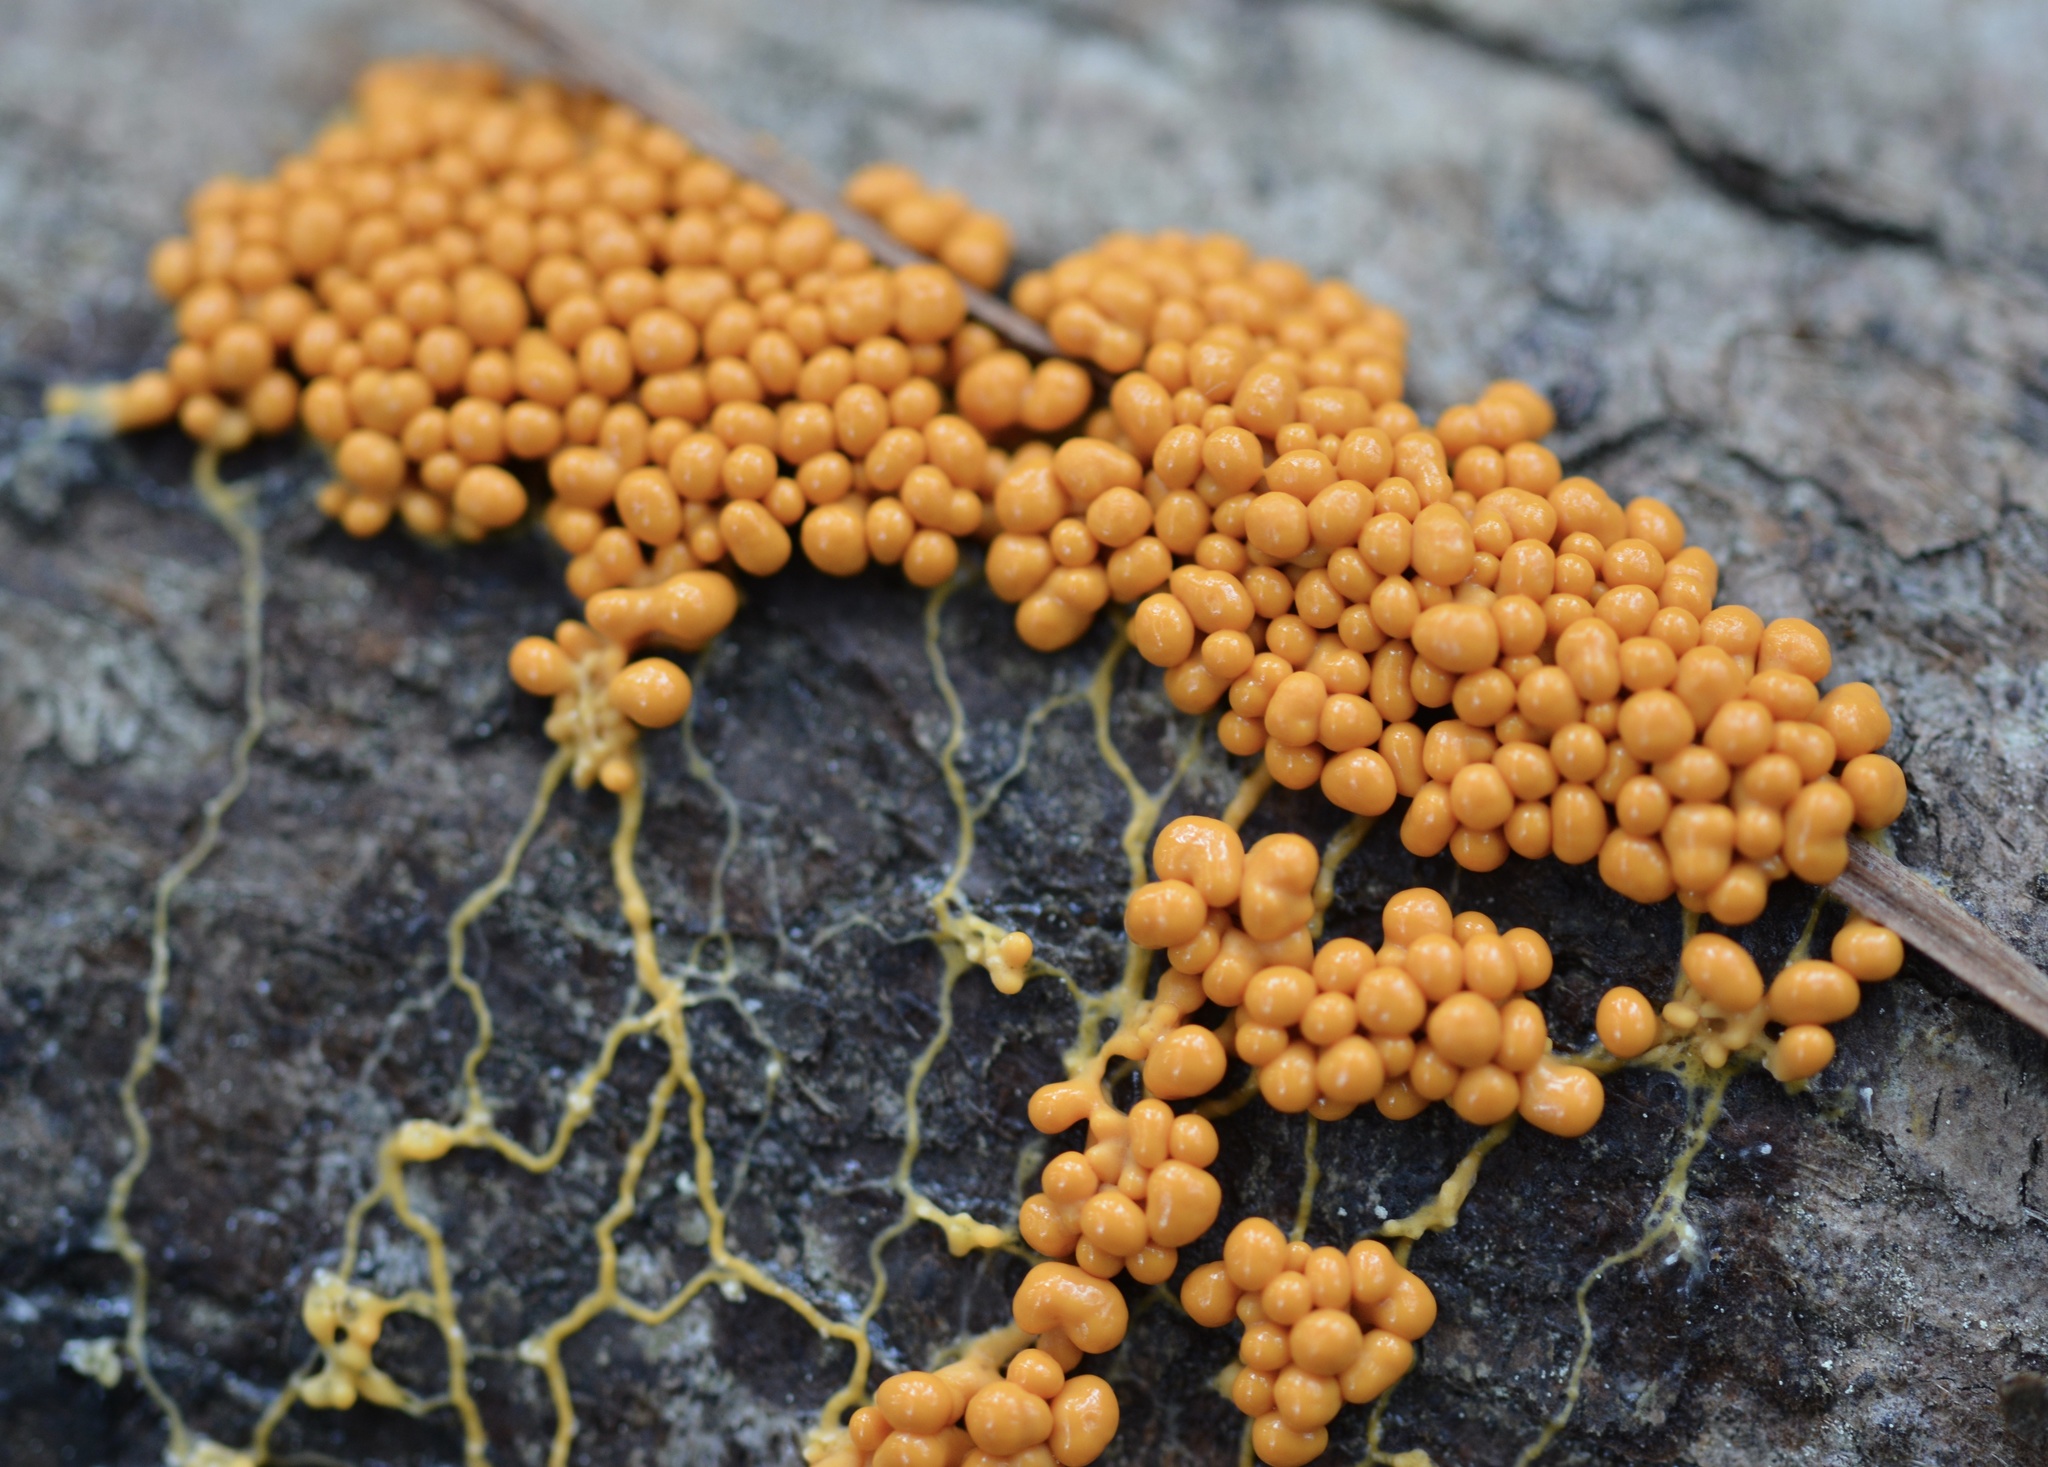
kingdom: Protozoa
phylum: Mycetozoa
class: Myxomycetes
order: Physarales
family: Physaraceae
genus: Leocarpus
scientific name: Leocarpus fragilis
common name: Insect-egg slime
